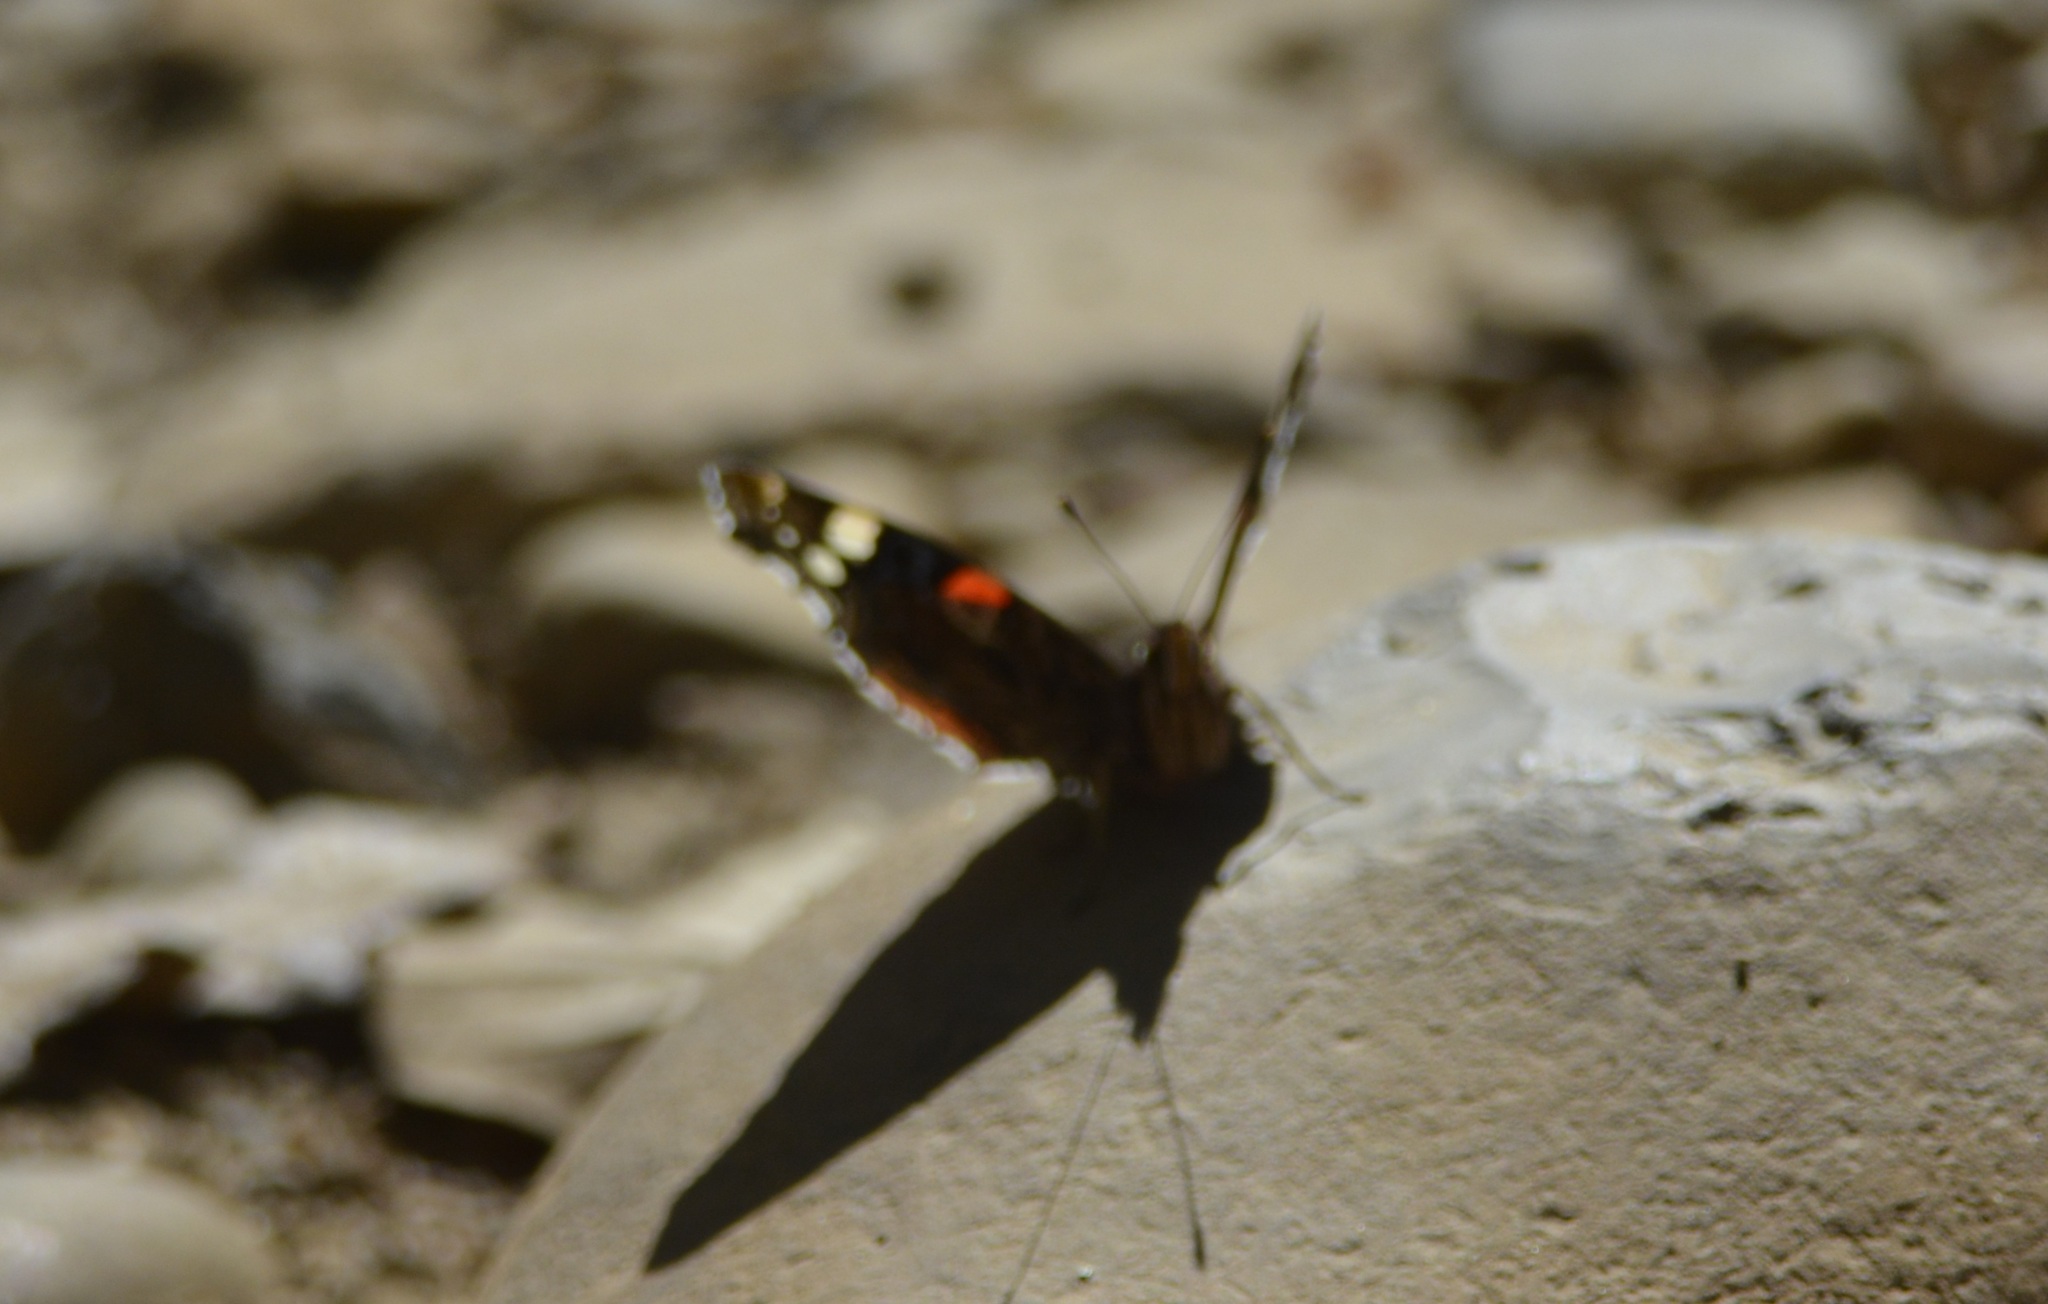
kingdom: Animalia
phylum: Arthropoda
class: Insecta
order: Lepidoptera
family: Nymphalidae
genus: Vanessa
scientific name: Vanessa atalanta
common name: Red admiral
